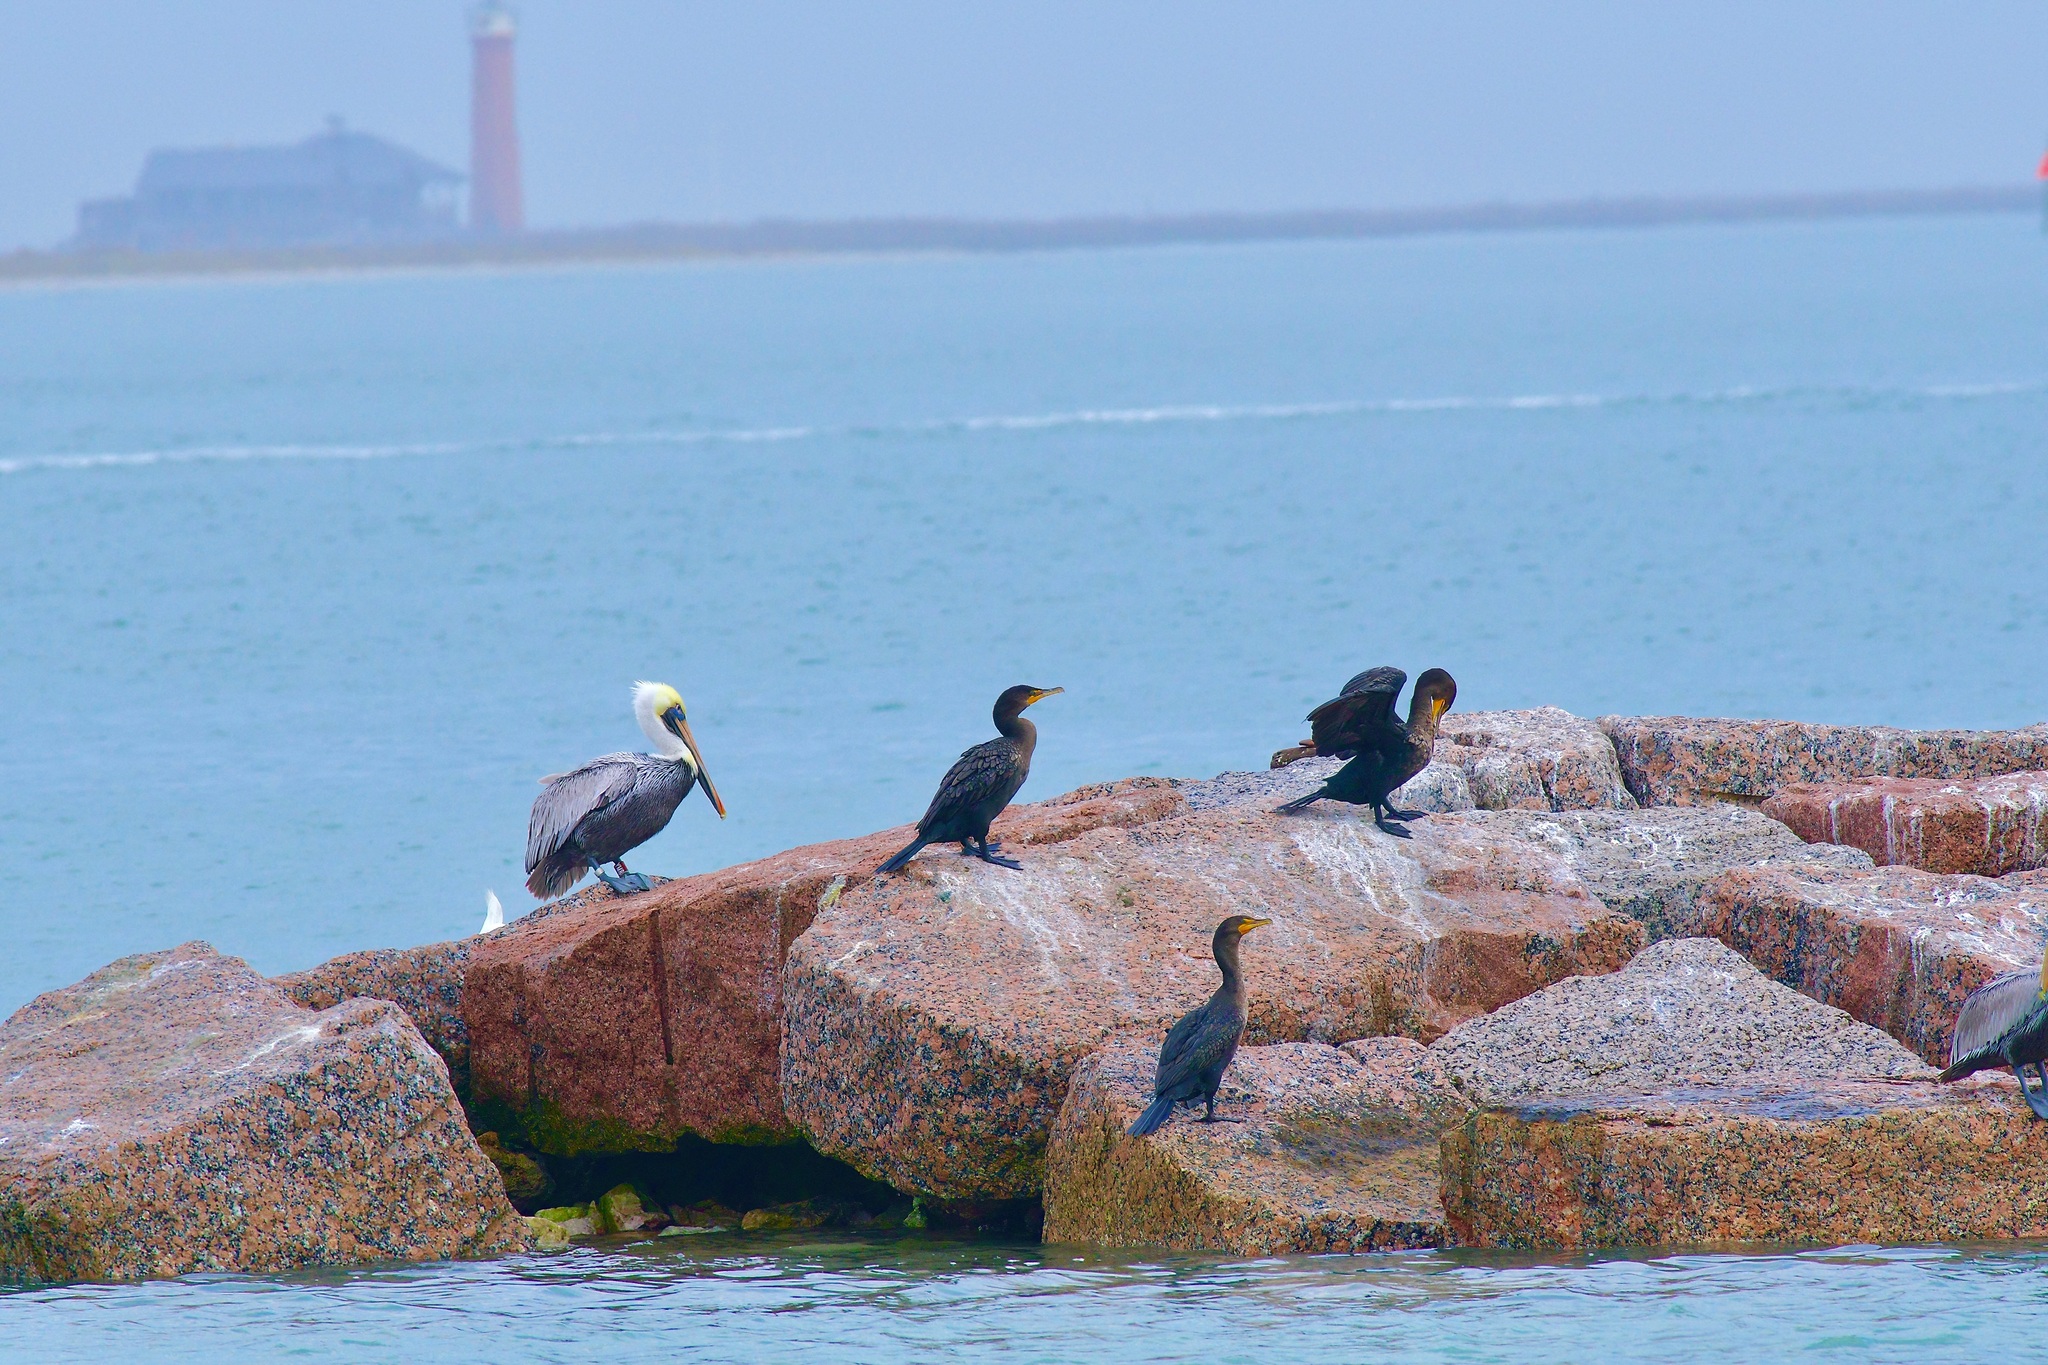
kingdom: Animalia
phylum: Chordata
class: Aves
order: Suliformes
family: Phalacrocoracidae
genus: Phalacrocorax
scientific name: Phalacrocorax auritus
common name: Double-crested cormorant
